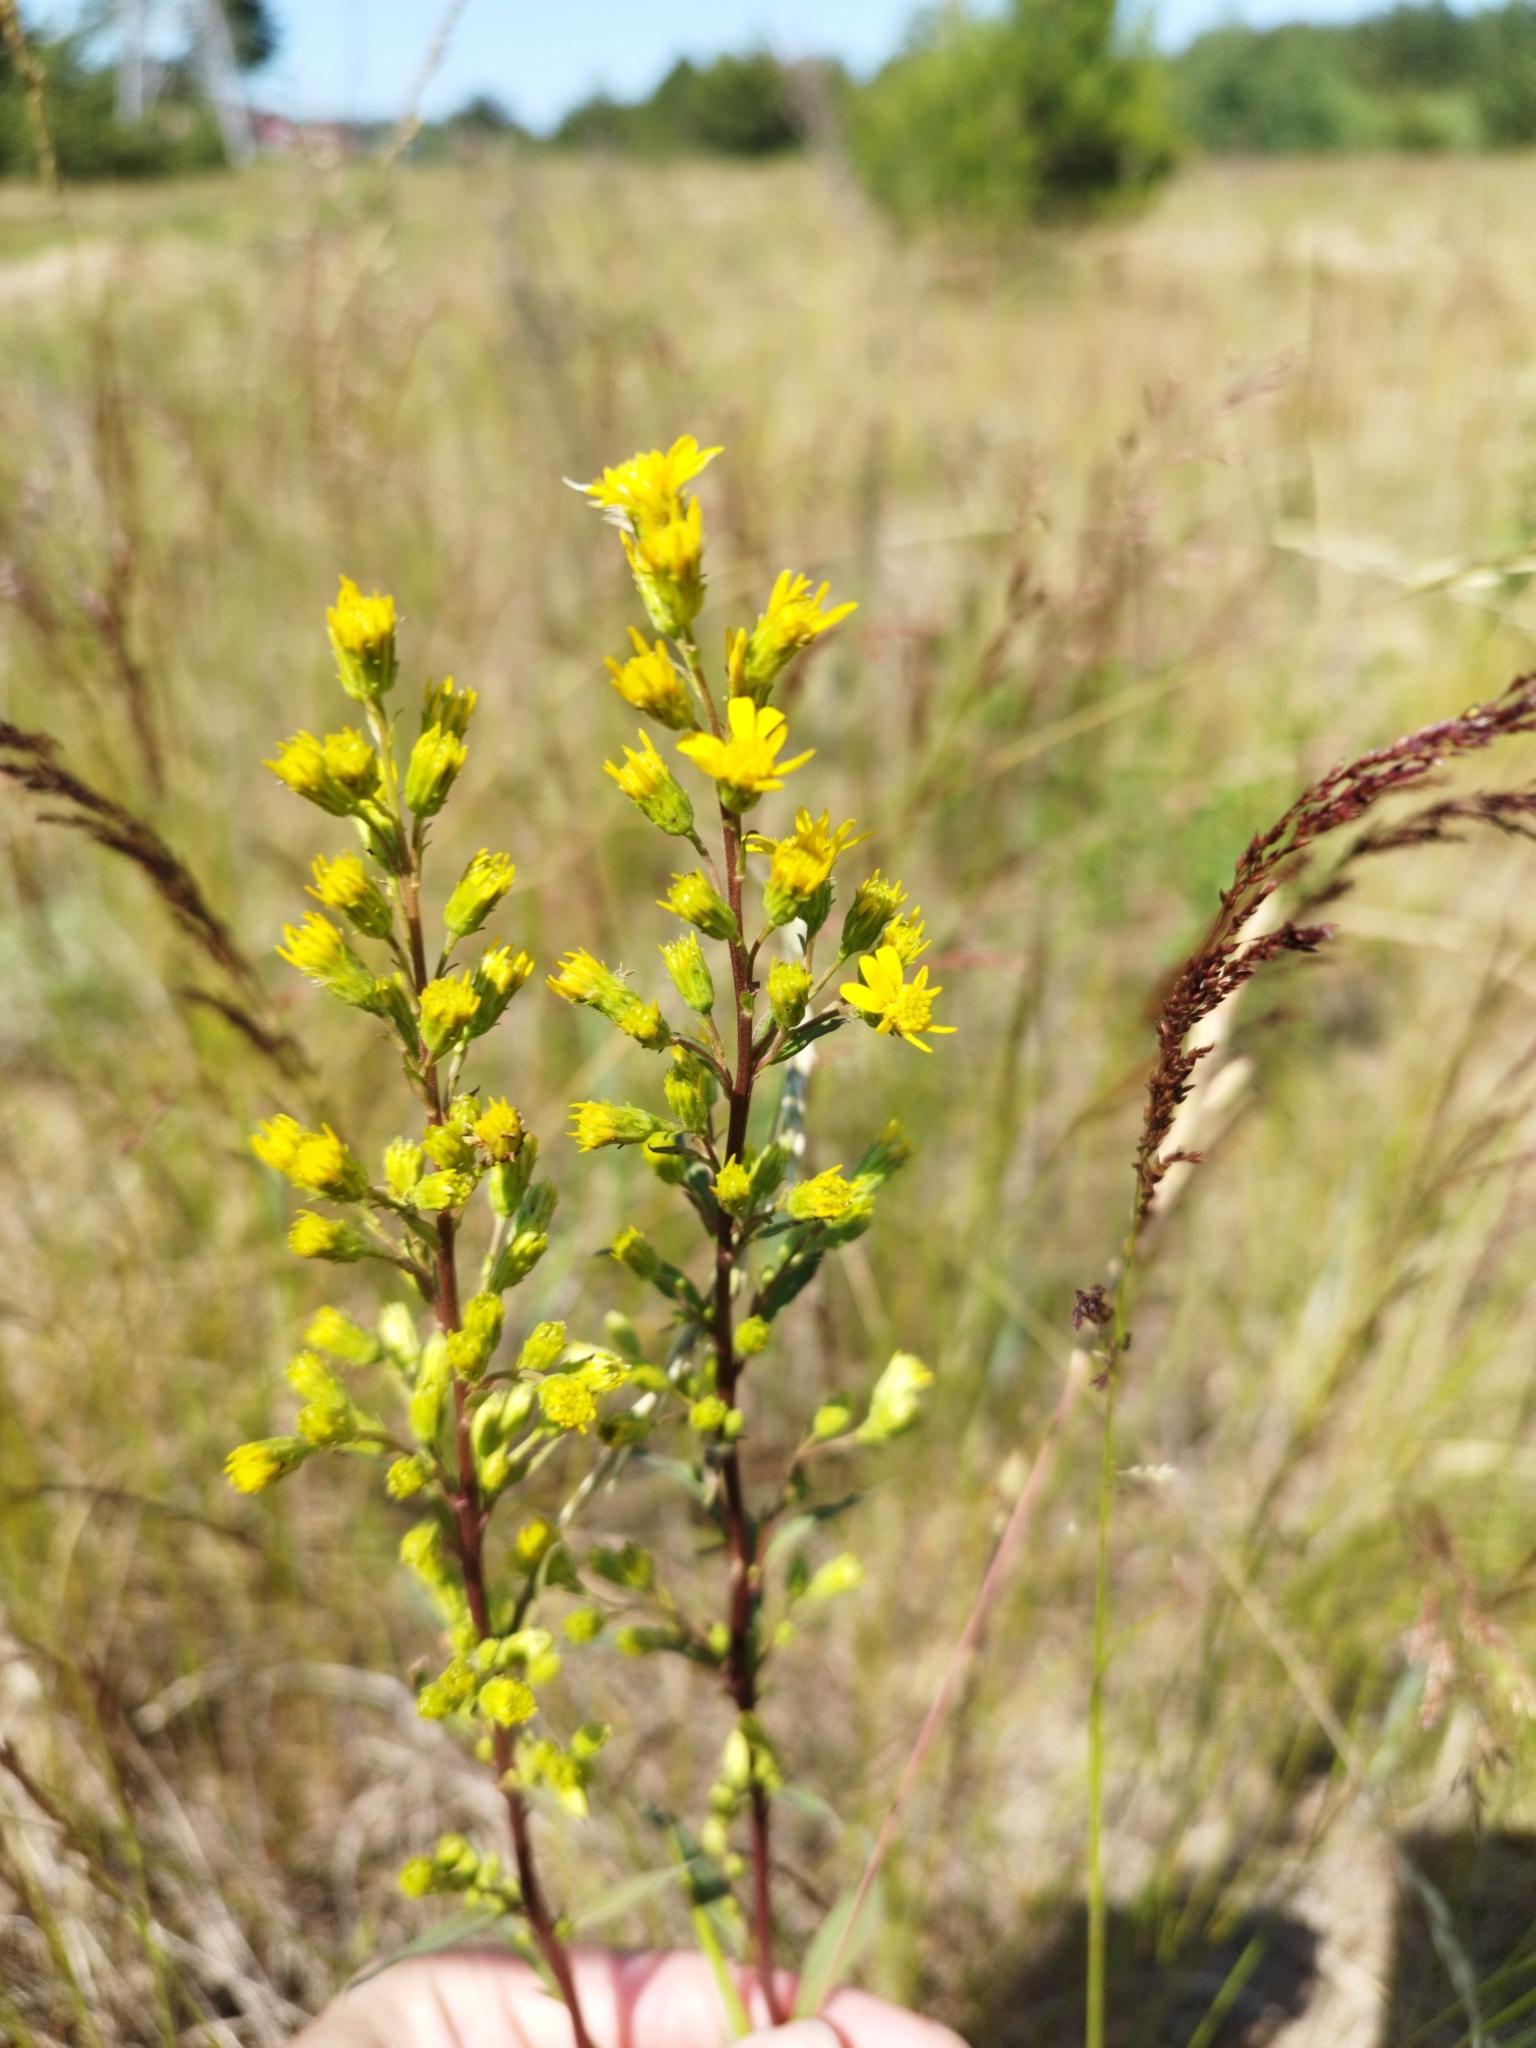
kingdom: Plantae
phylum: Tracheophyta
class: Magnoliopsida
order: Asterales
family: Asteraceae
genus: Solidago
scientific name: Solidago virgaurea
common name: Goldenrod
